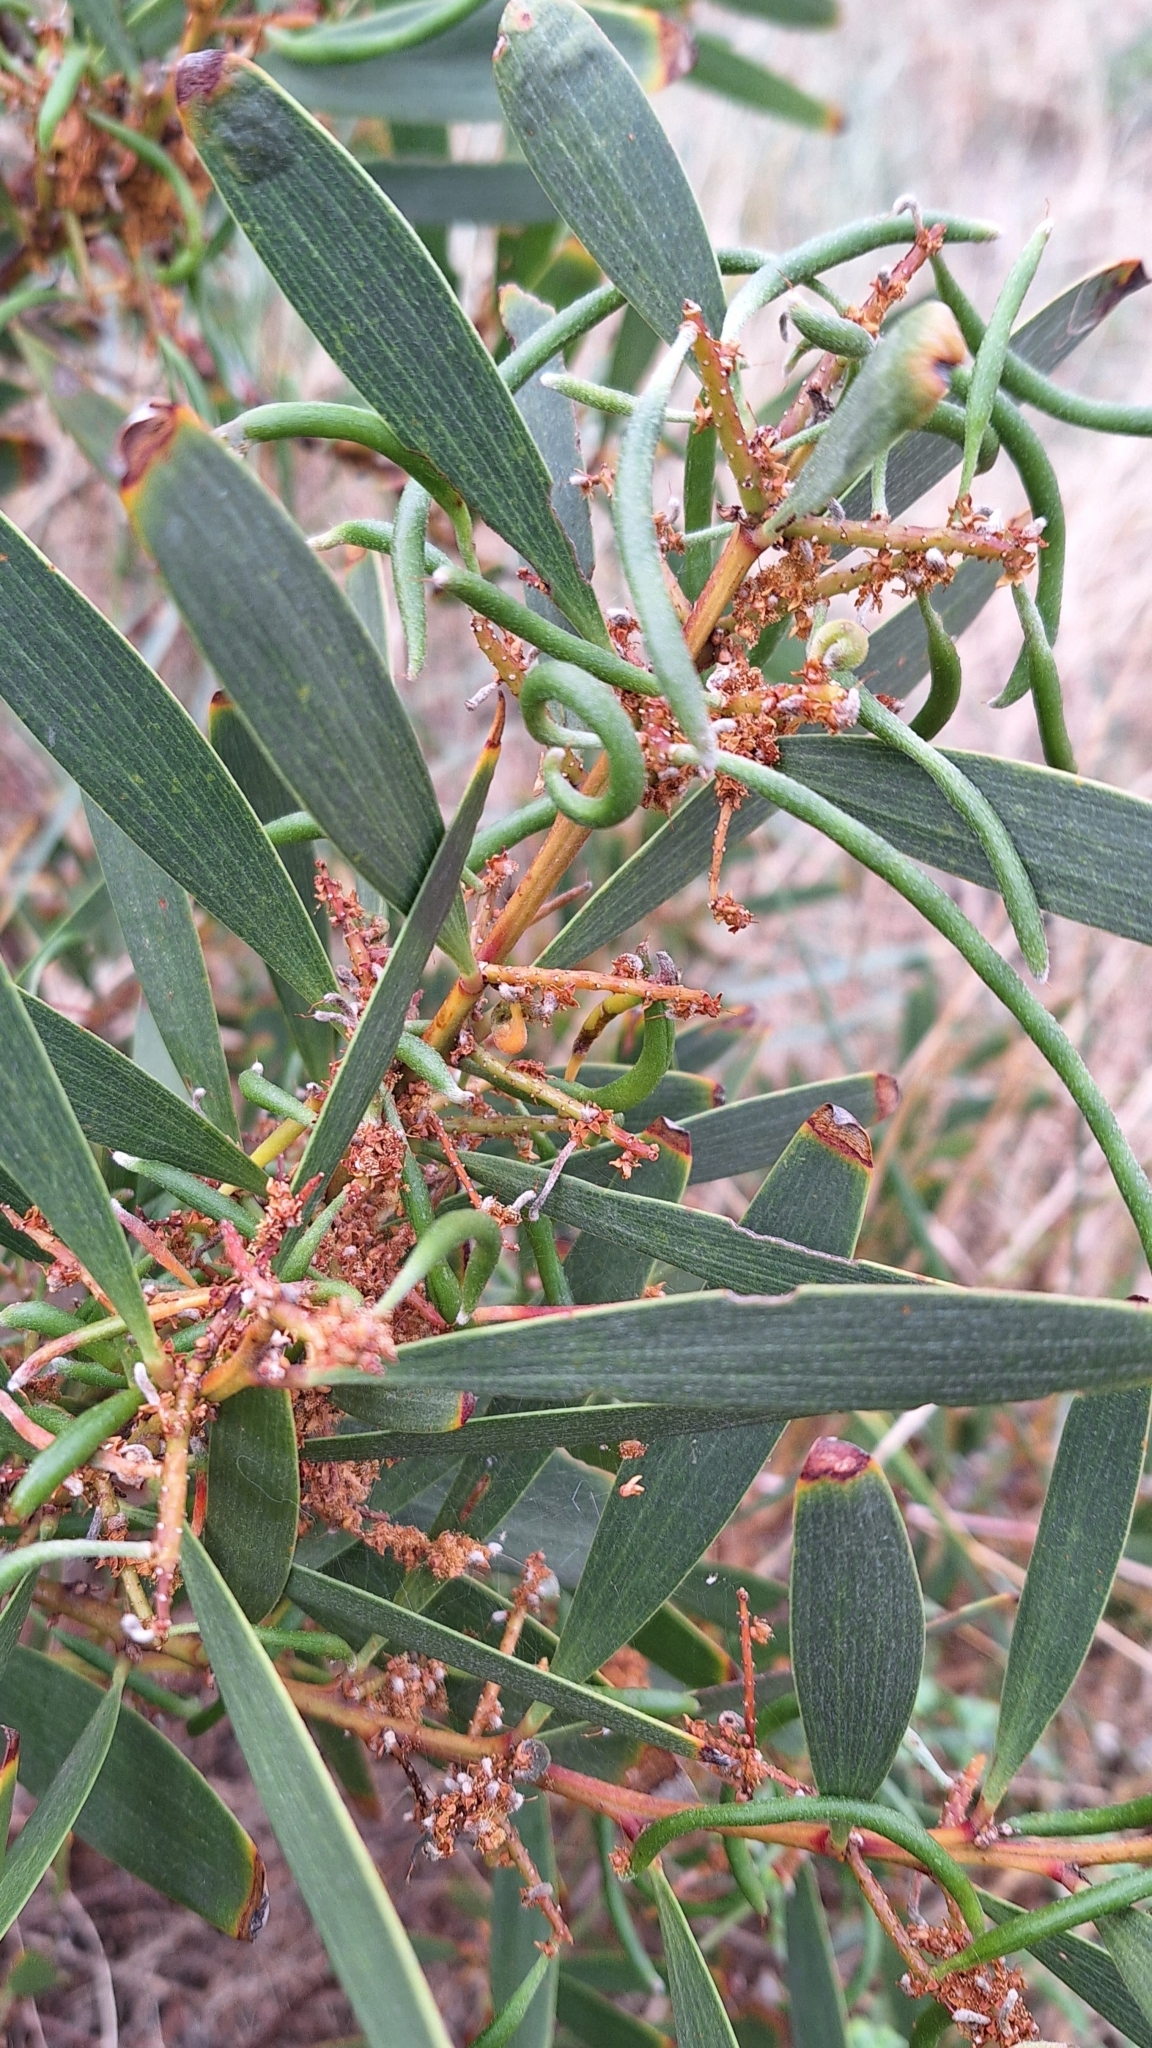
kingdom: Plantae
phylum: Tracheophyta
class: Magnoliopsida
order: Fabales
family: Fabaceae
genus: Acacia
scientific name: Acacia longifolia
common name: Sydney golden wattle
